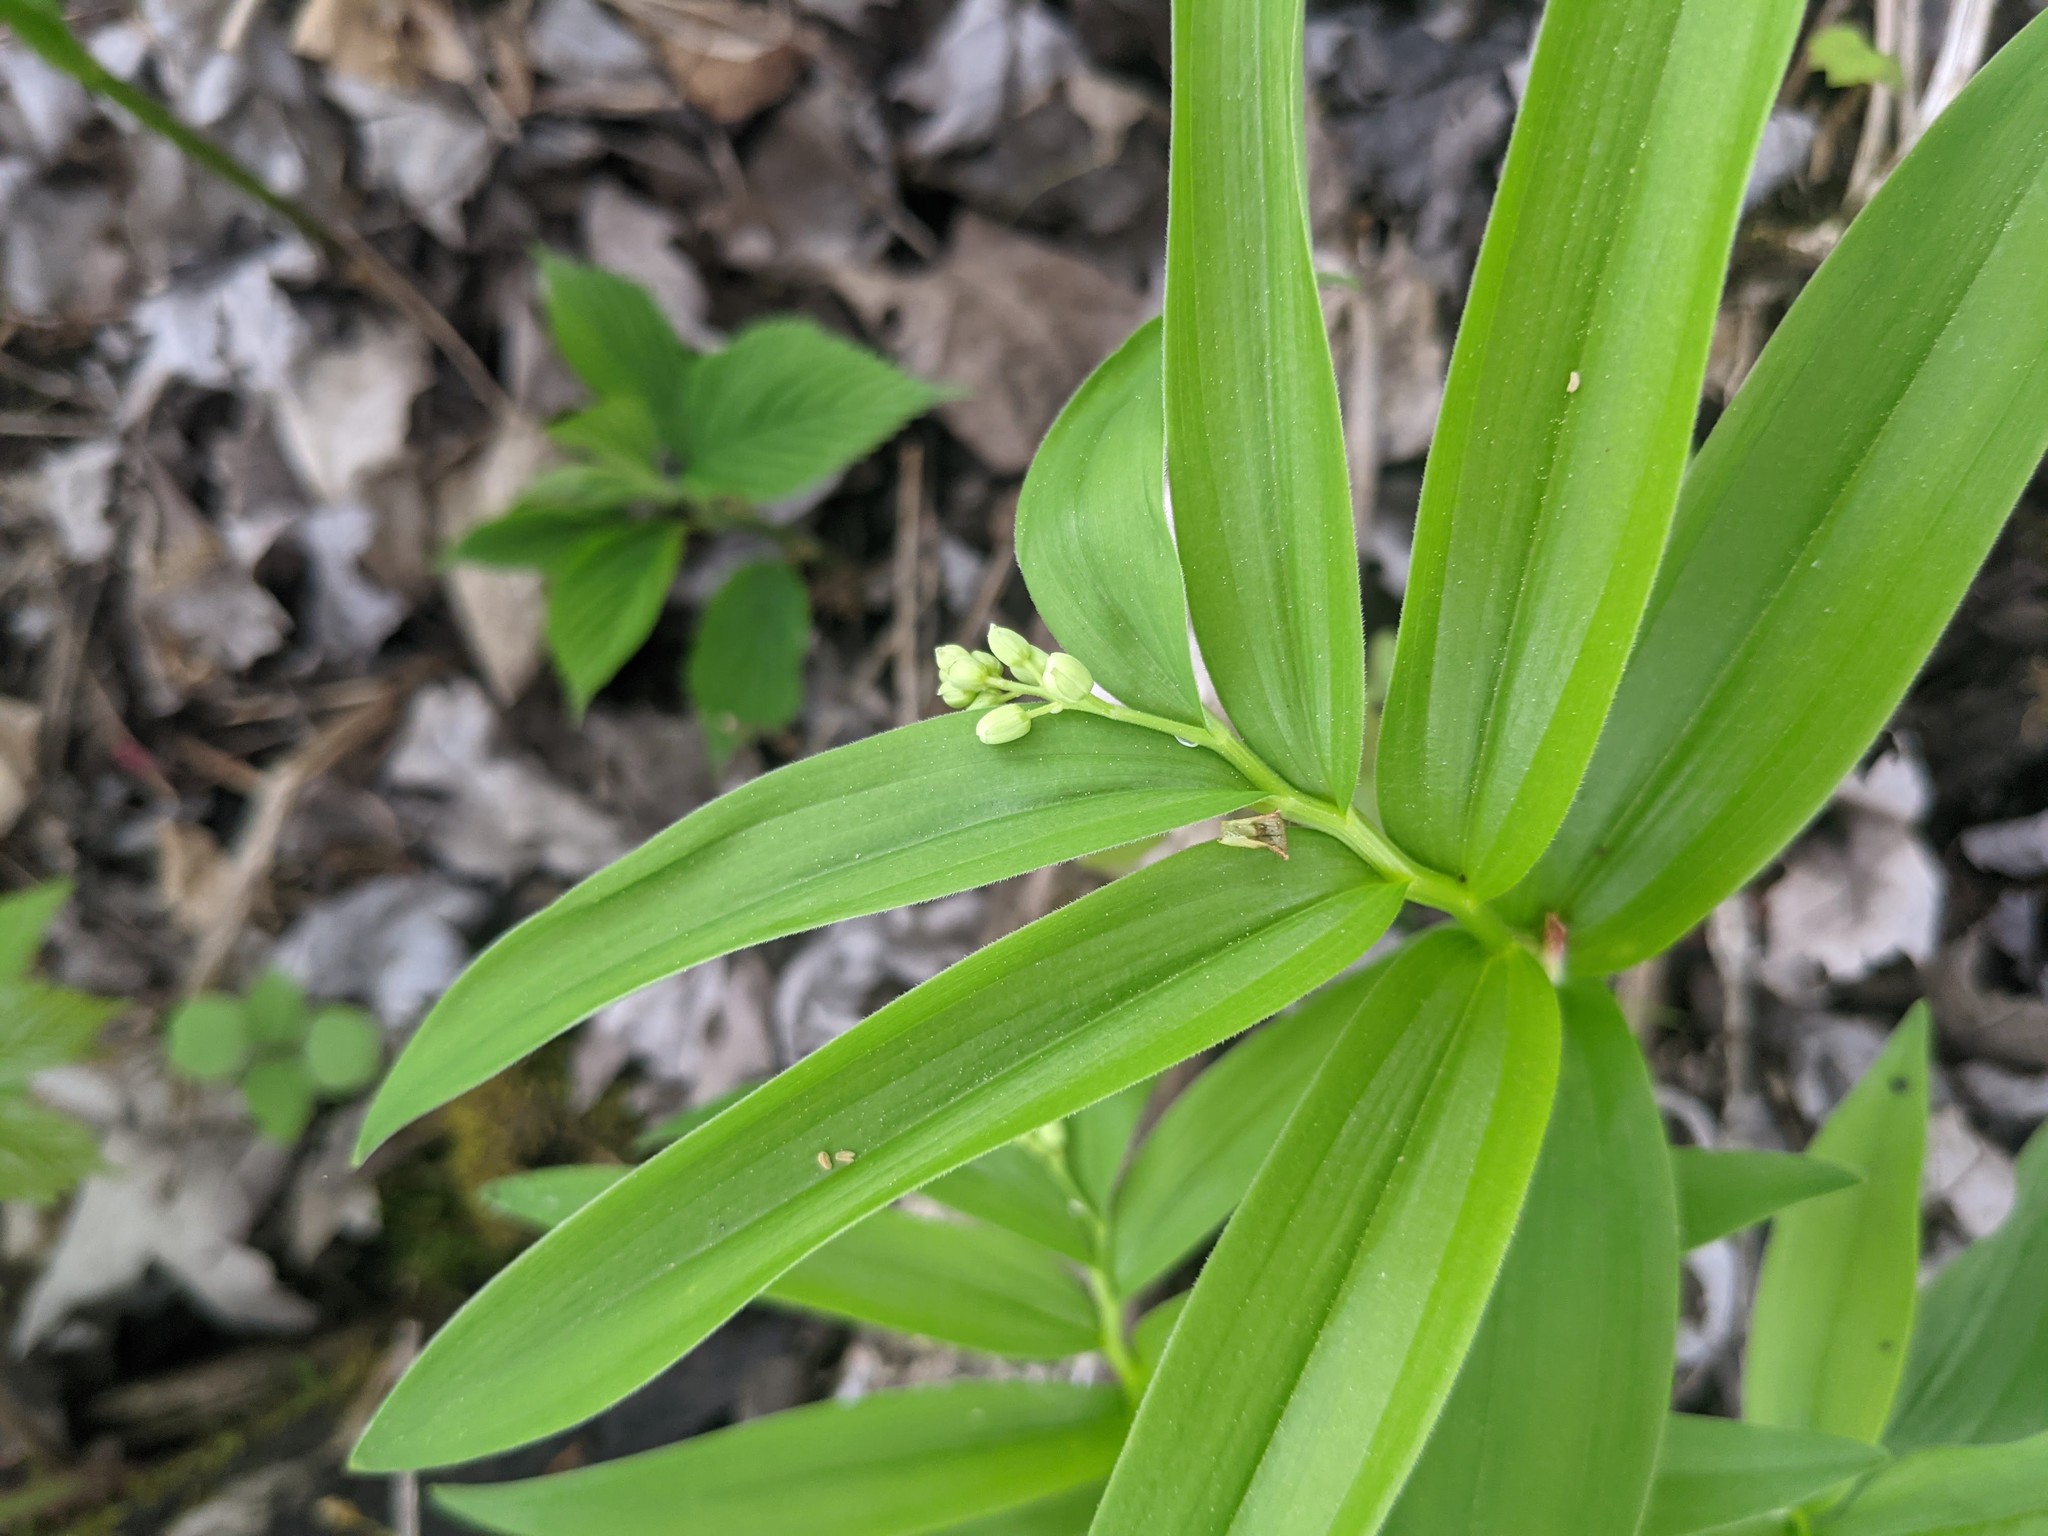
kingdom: Plantae
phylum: Tracheophyta
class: Liliopsida
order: Asparagales
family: Asparagaceae
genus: Maianthemum
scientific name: Maianthemum stellatum
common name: Little false solomon's seal
